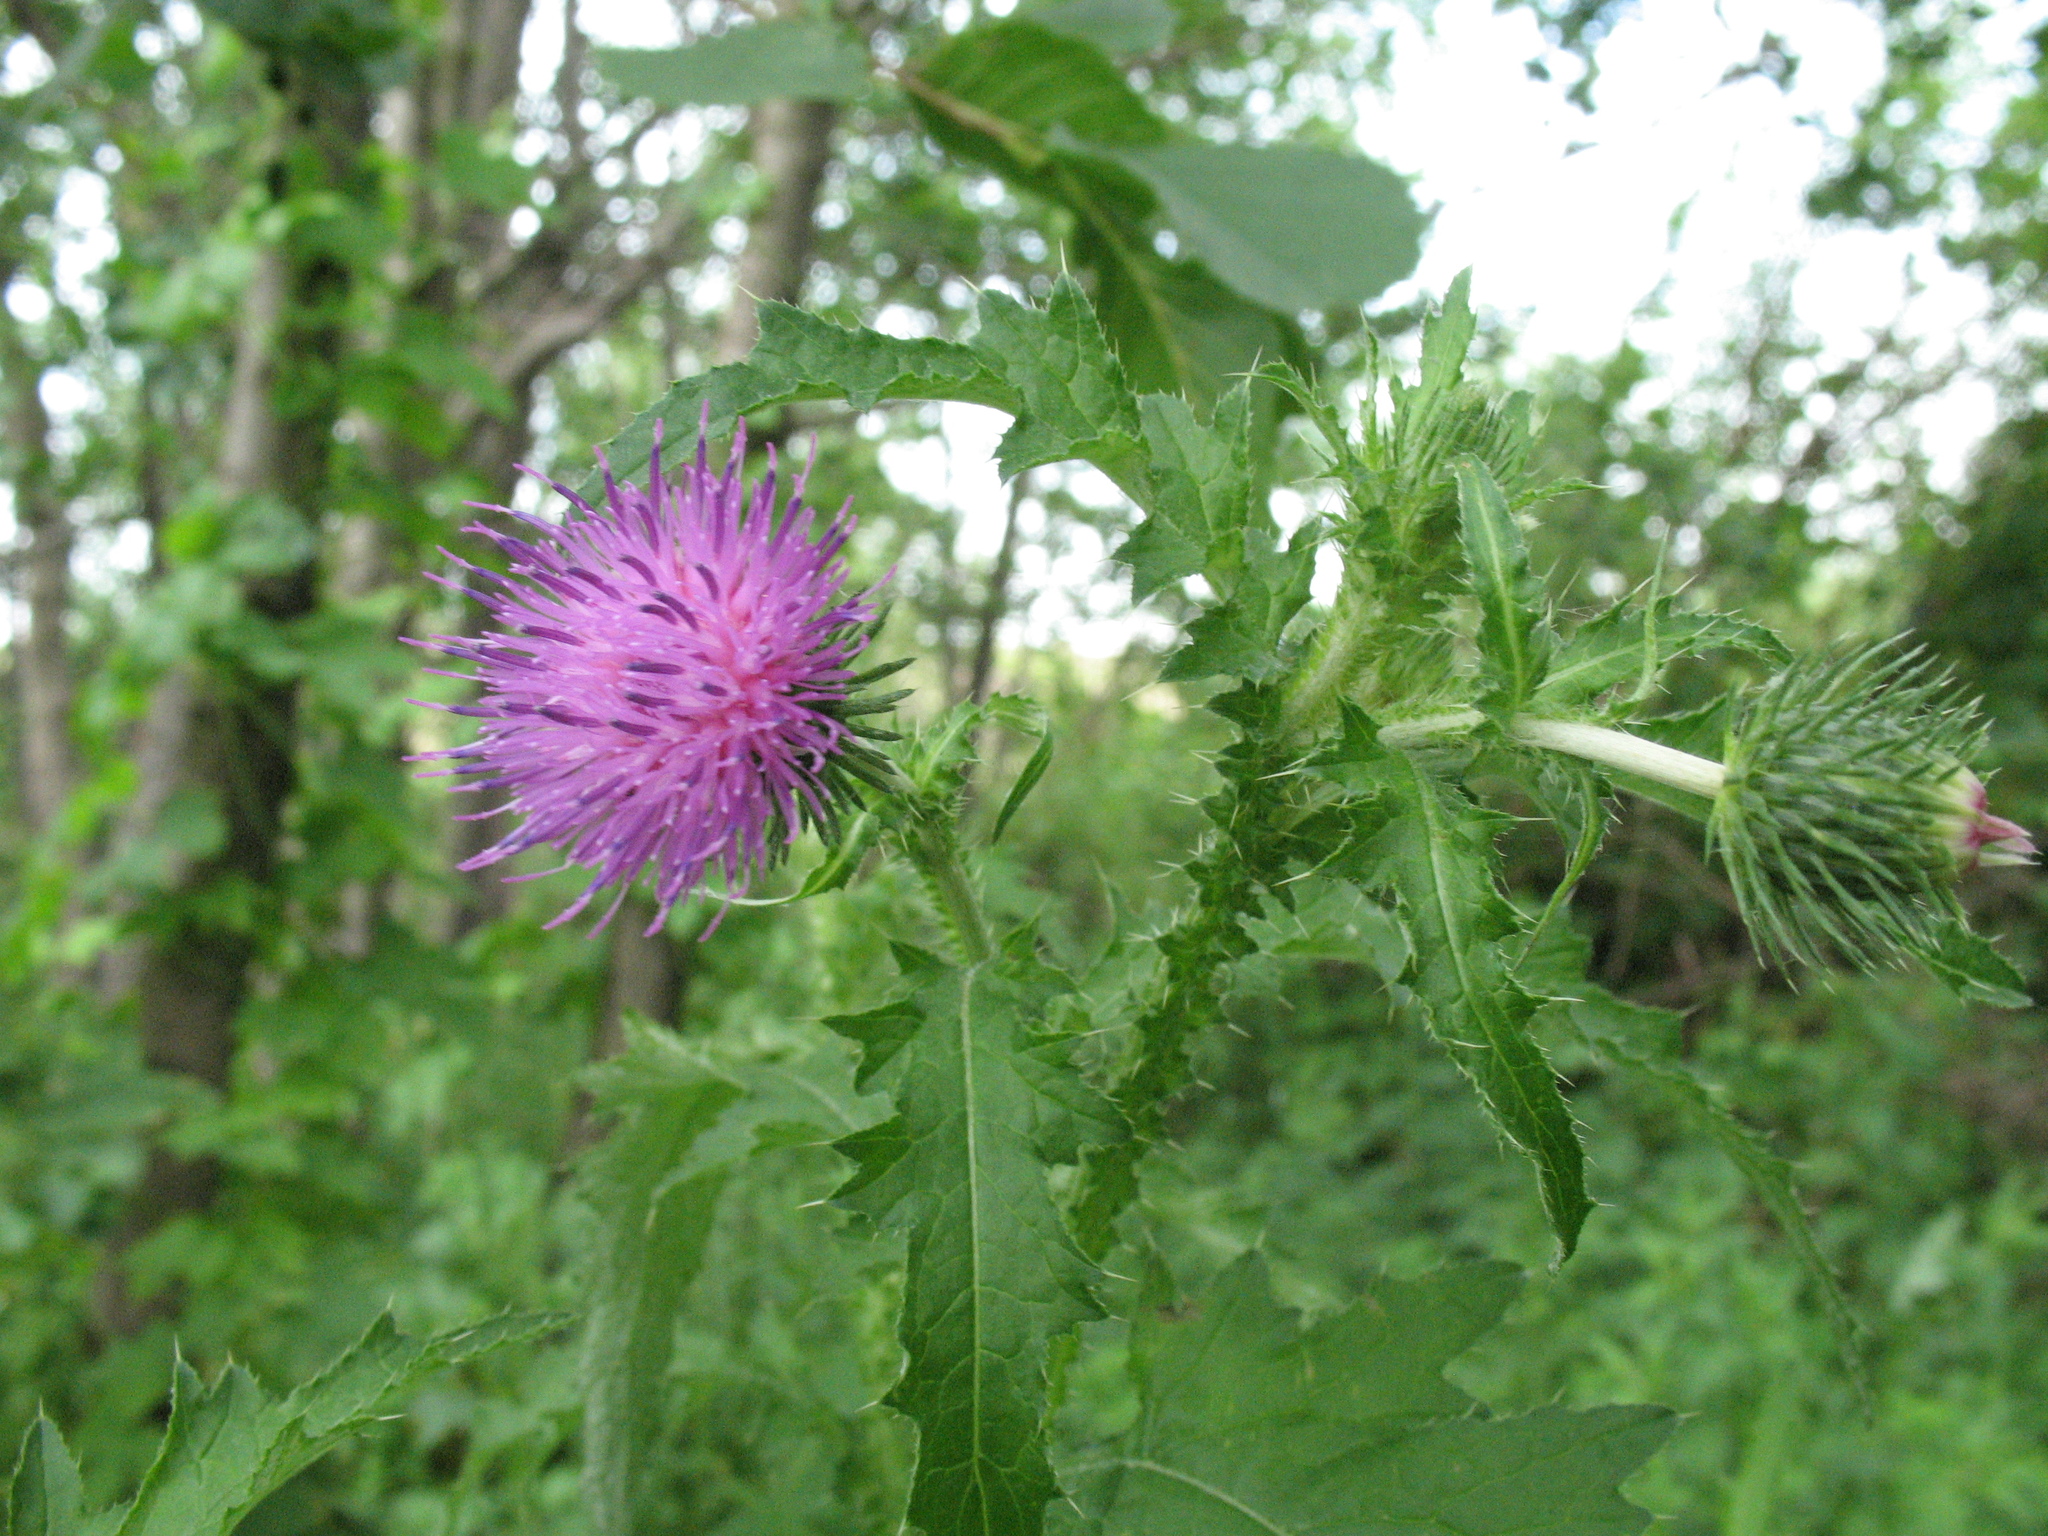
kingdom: Plantae
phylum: Tracheophyta
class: Magnoliopsida
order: Asterales
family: Asteraceae
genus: Carduus
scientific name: Carduus crispus
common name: Welted thistle
